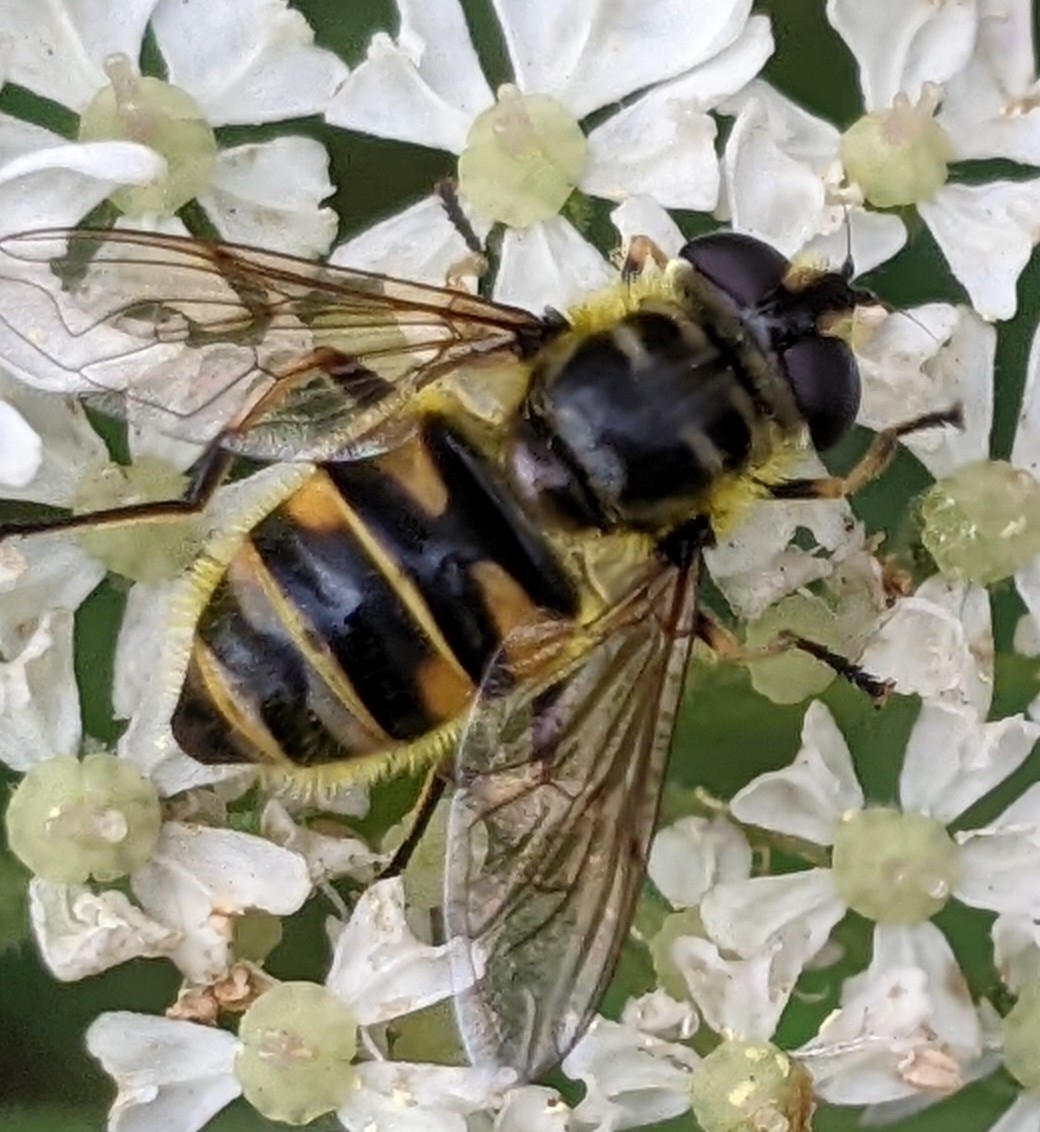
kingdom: Animalia
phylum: Arthropoda
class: Insecta
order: Diptera
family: Syrphidae
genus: Myathropa
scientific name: Myathropa florea
